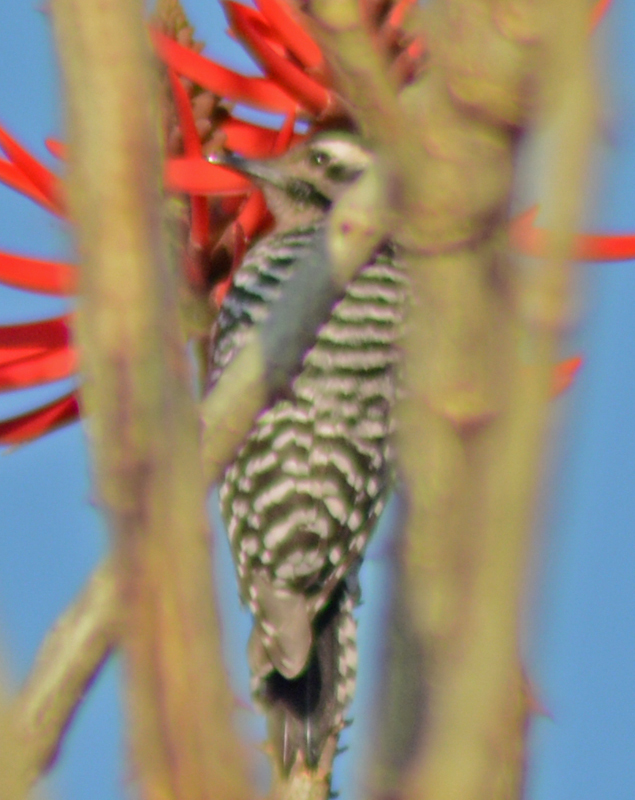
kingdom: Animalia
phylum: Chordata
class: Aves
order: Piciformes
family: Picidae
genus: Dryobates
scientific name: Dryobates scalaris
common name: Ladder-backed woodpecker
